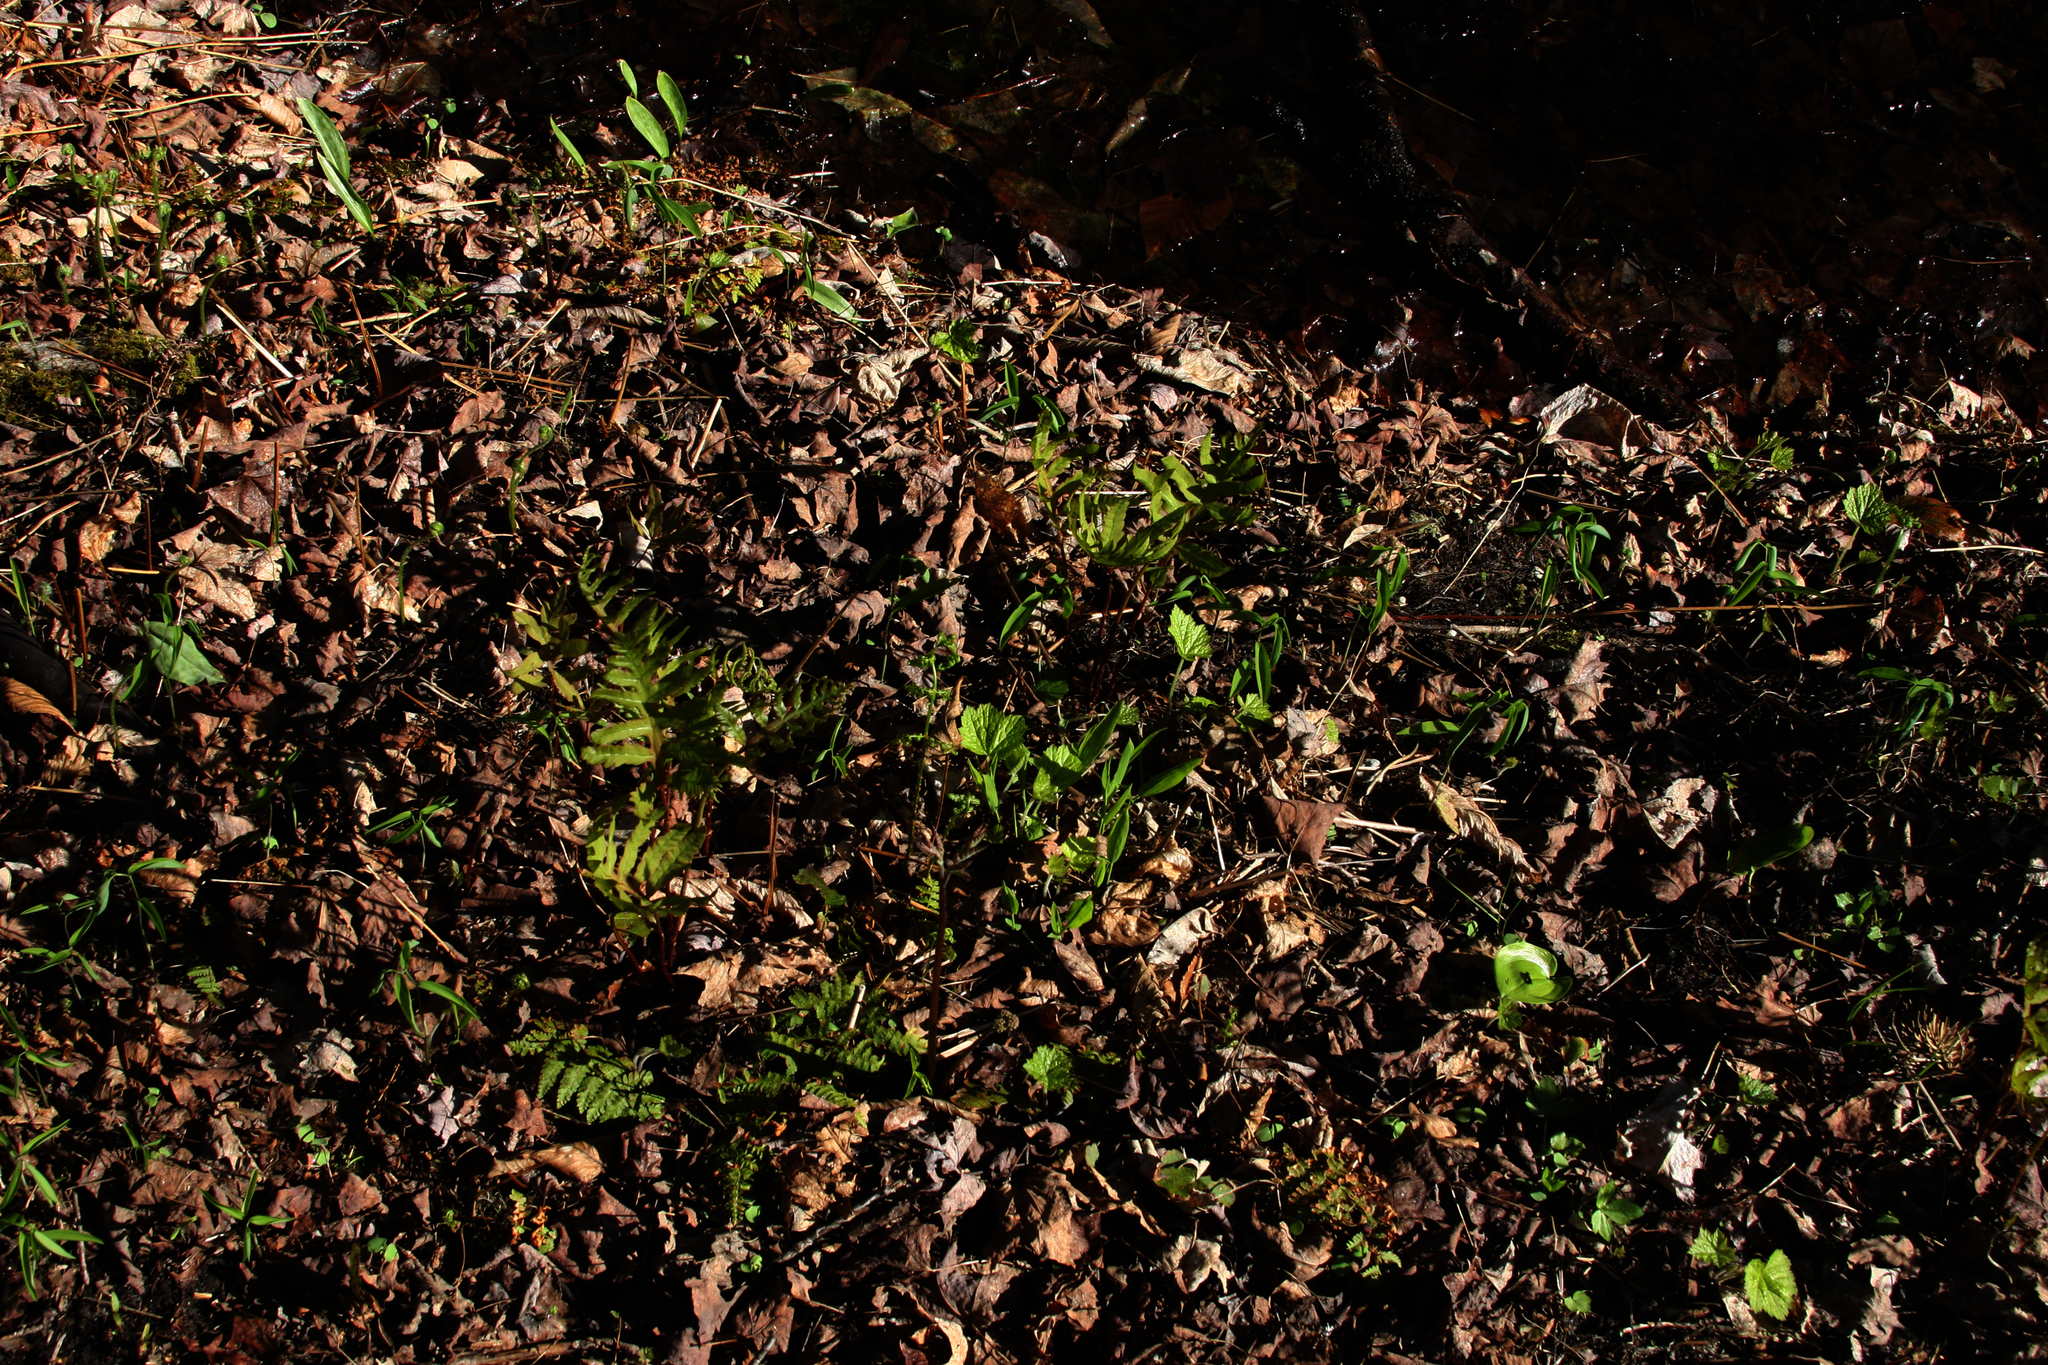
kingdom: Plantae
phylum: Tracheophyta
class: Polypodiopsida
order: Polypodiales
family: Onocleaceae
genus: Onoclea
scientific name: Onoclea sensibilis
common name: Sensitive fern
